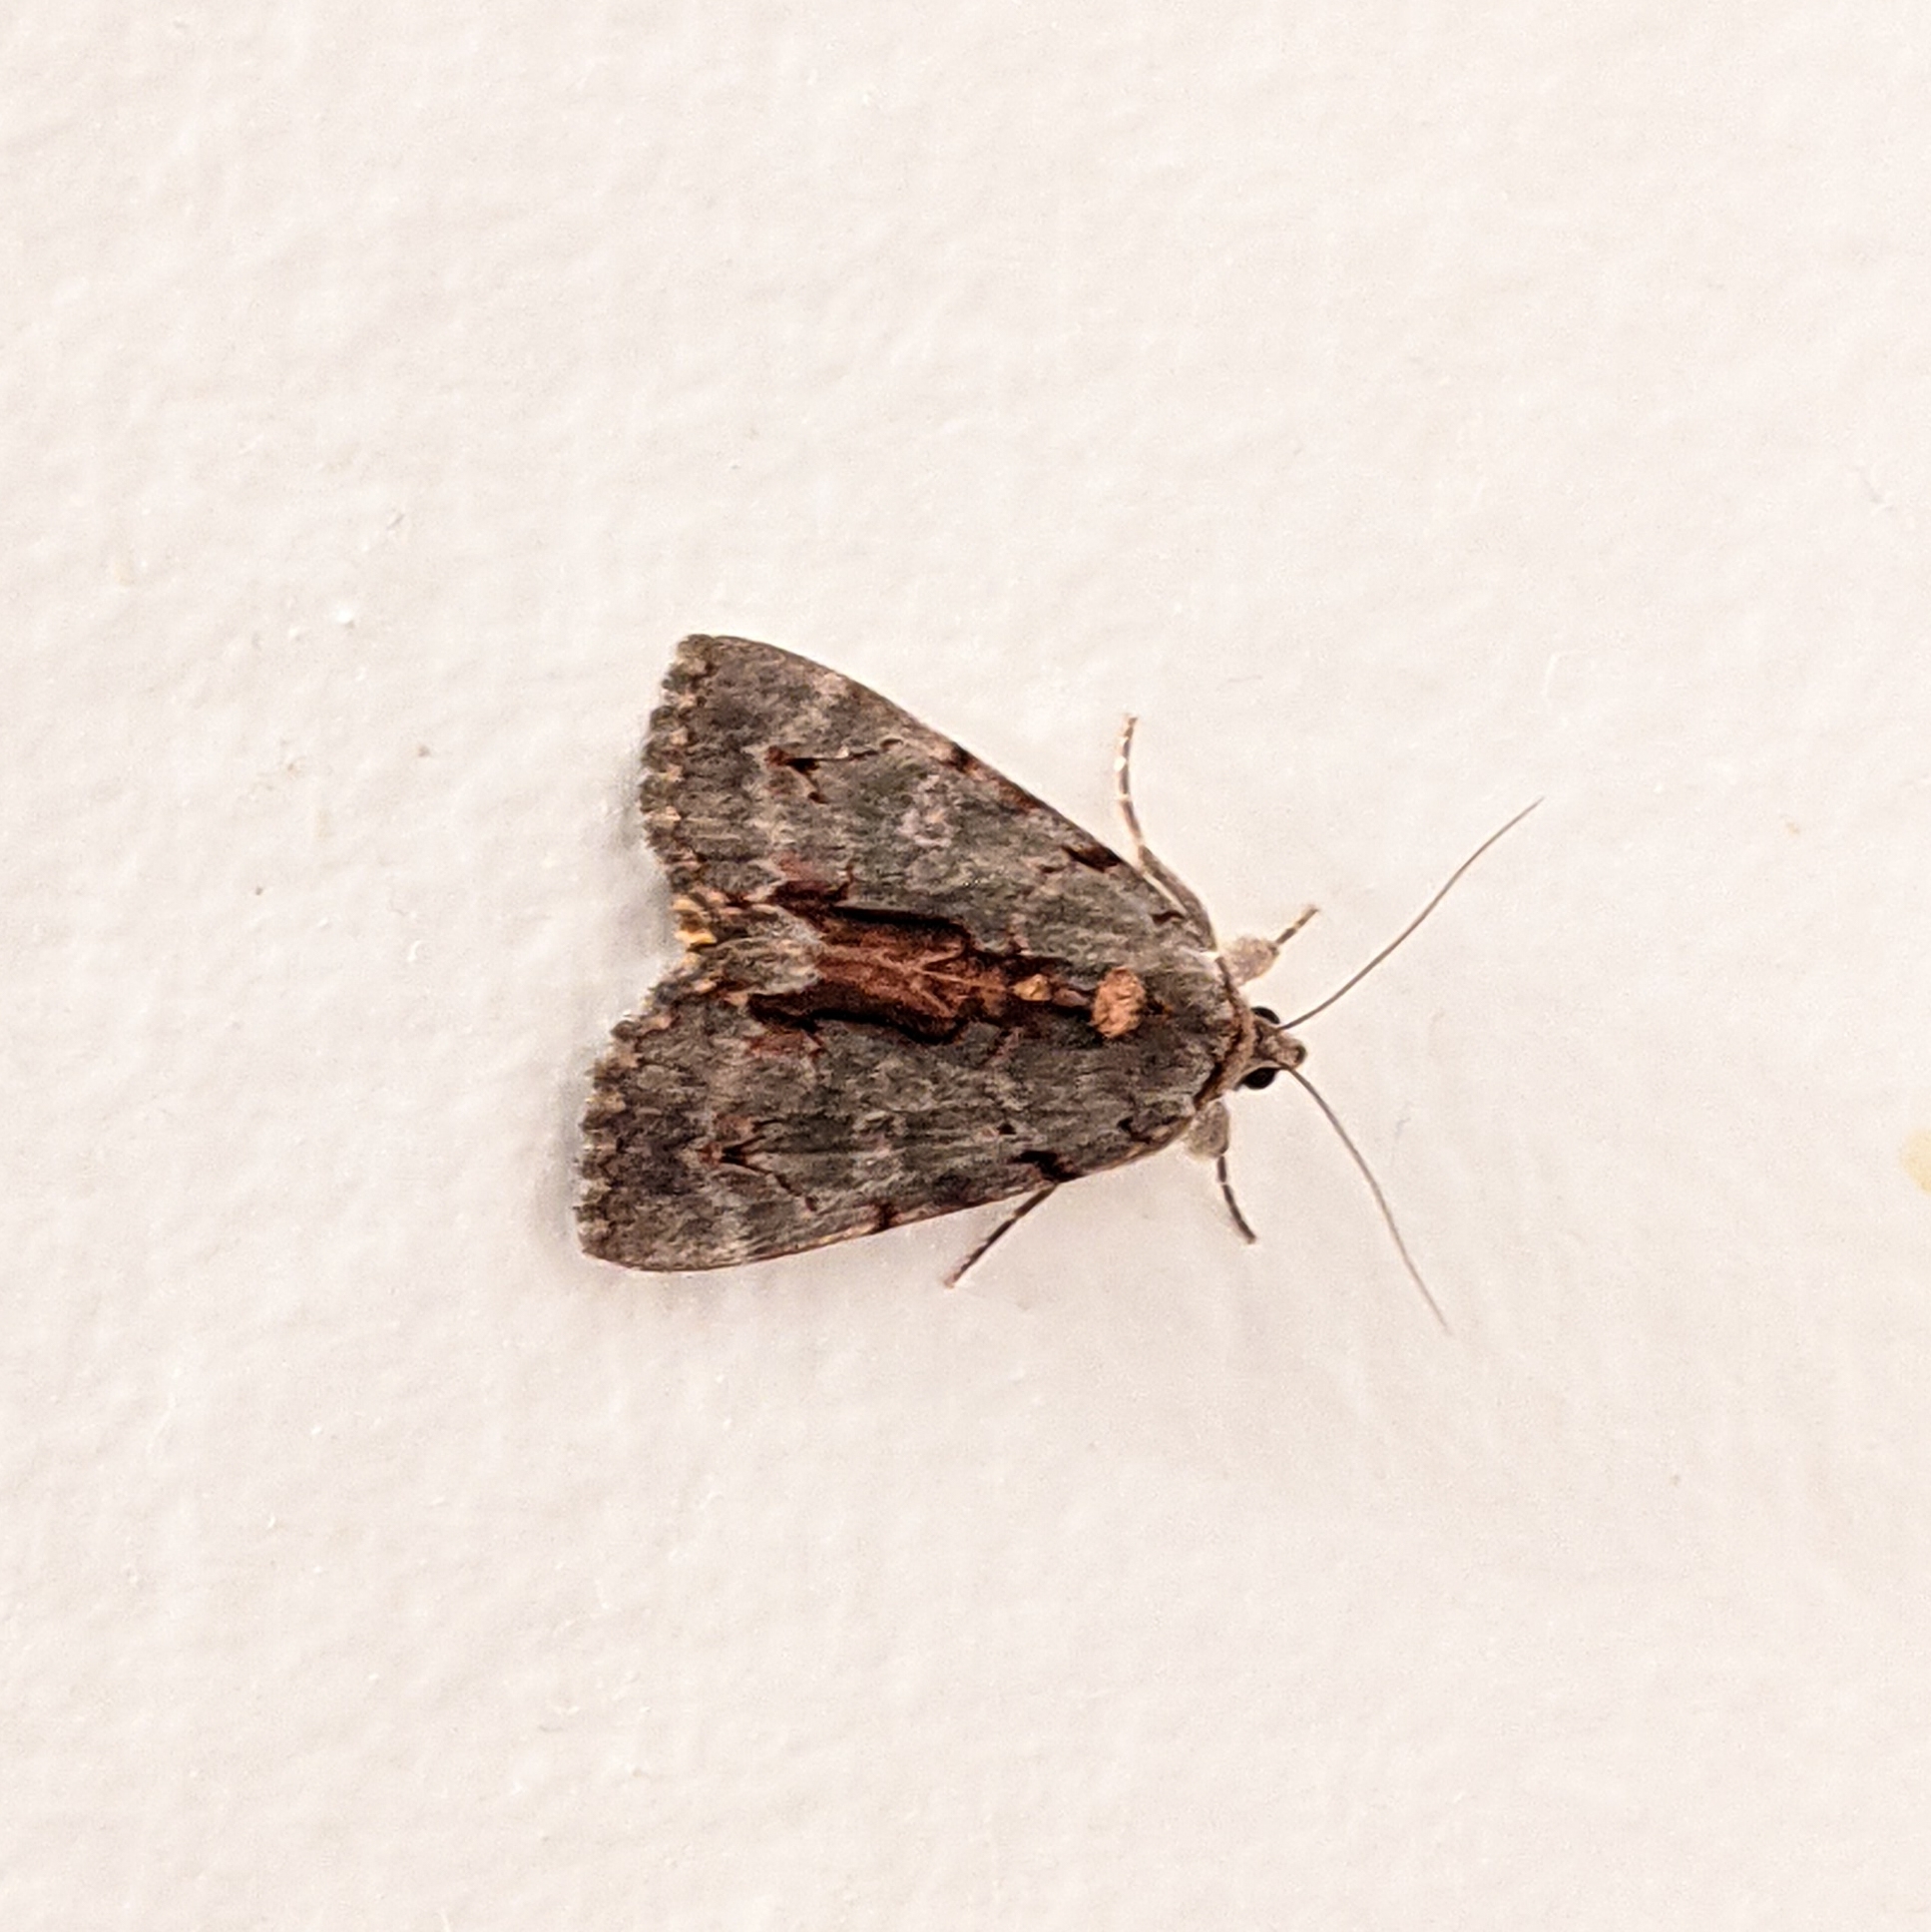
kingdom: Animalia
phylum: Arthropoda
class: Insecta
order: Lepidoptera
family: Erebidae
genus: Catocala
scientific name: Catocala grynea
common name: Woody underwing
